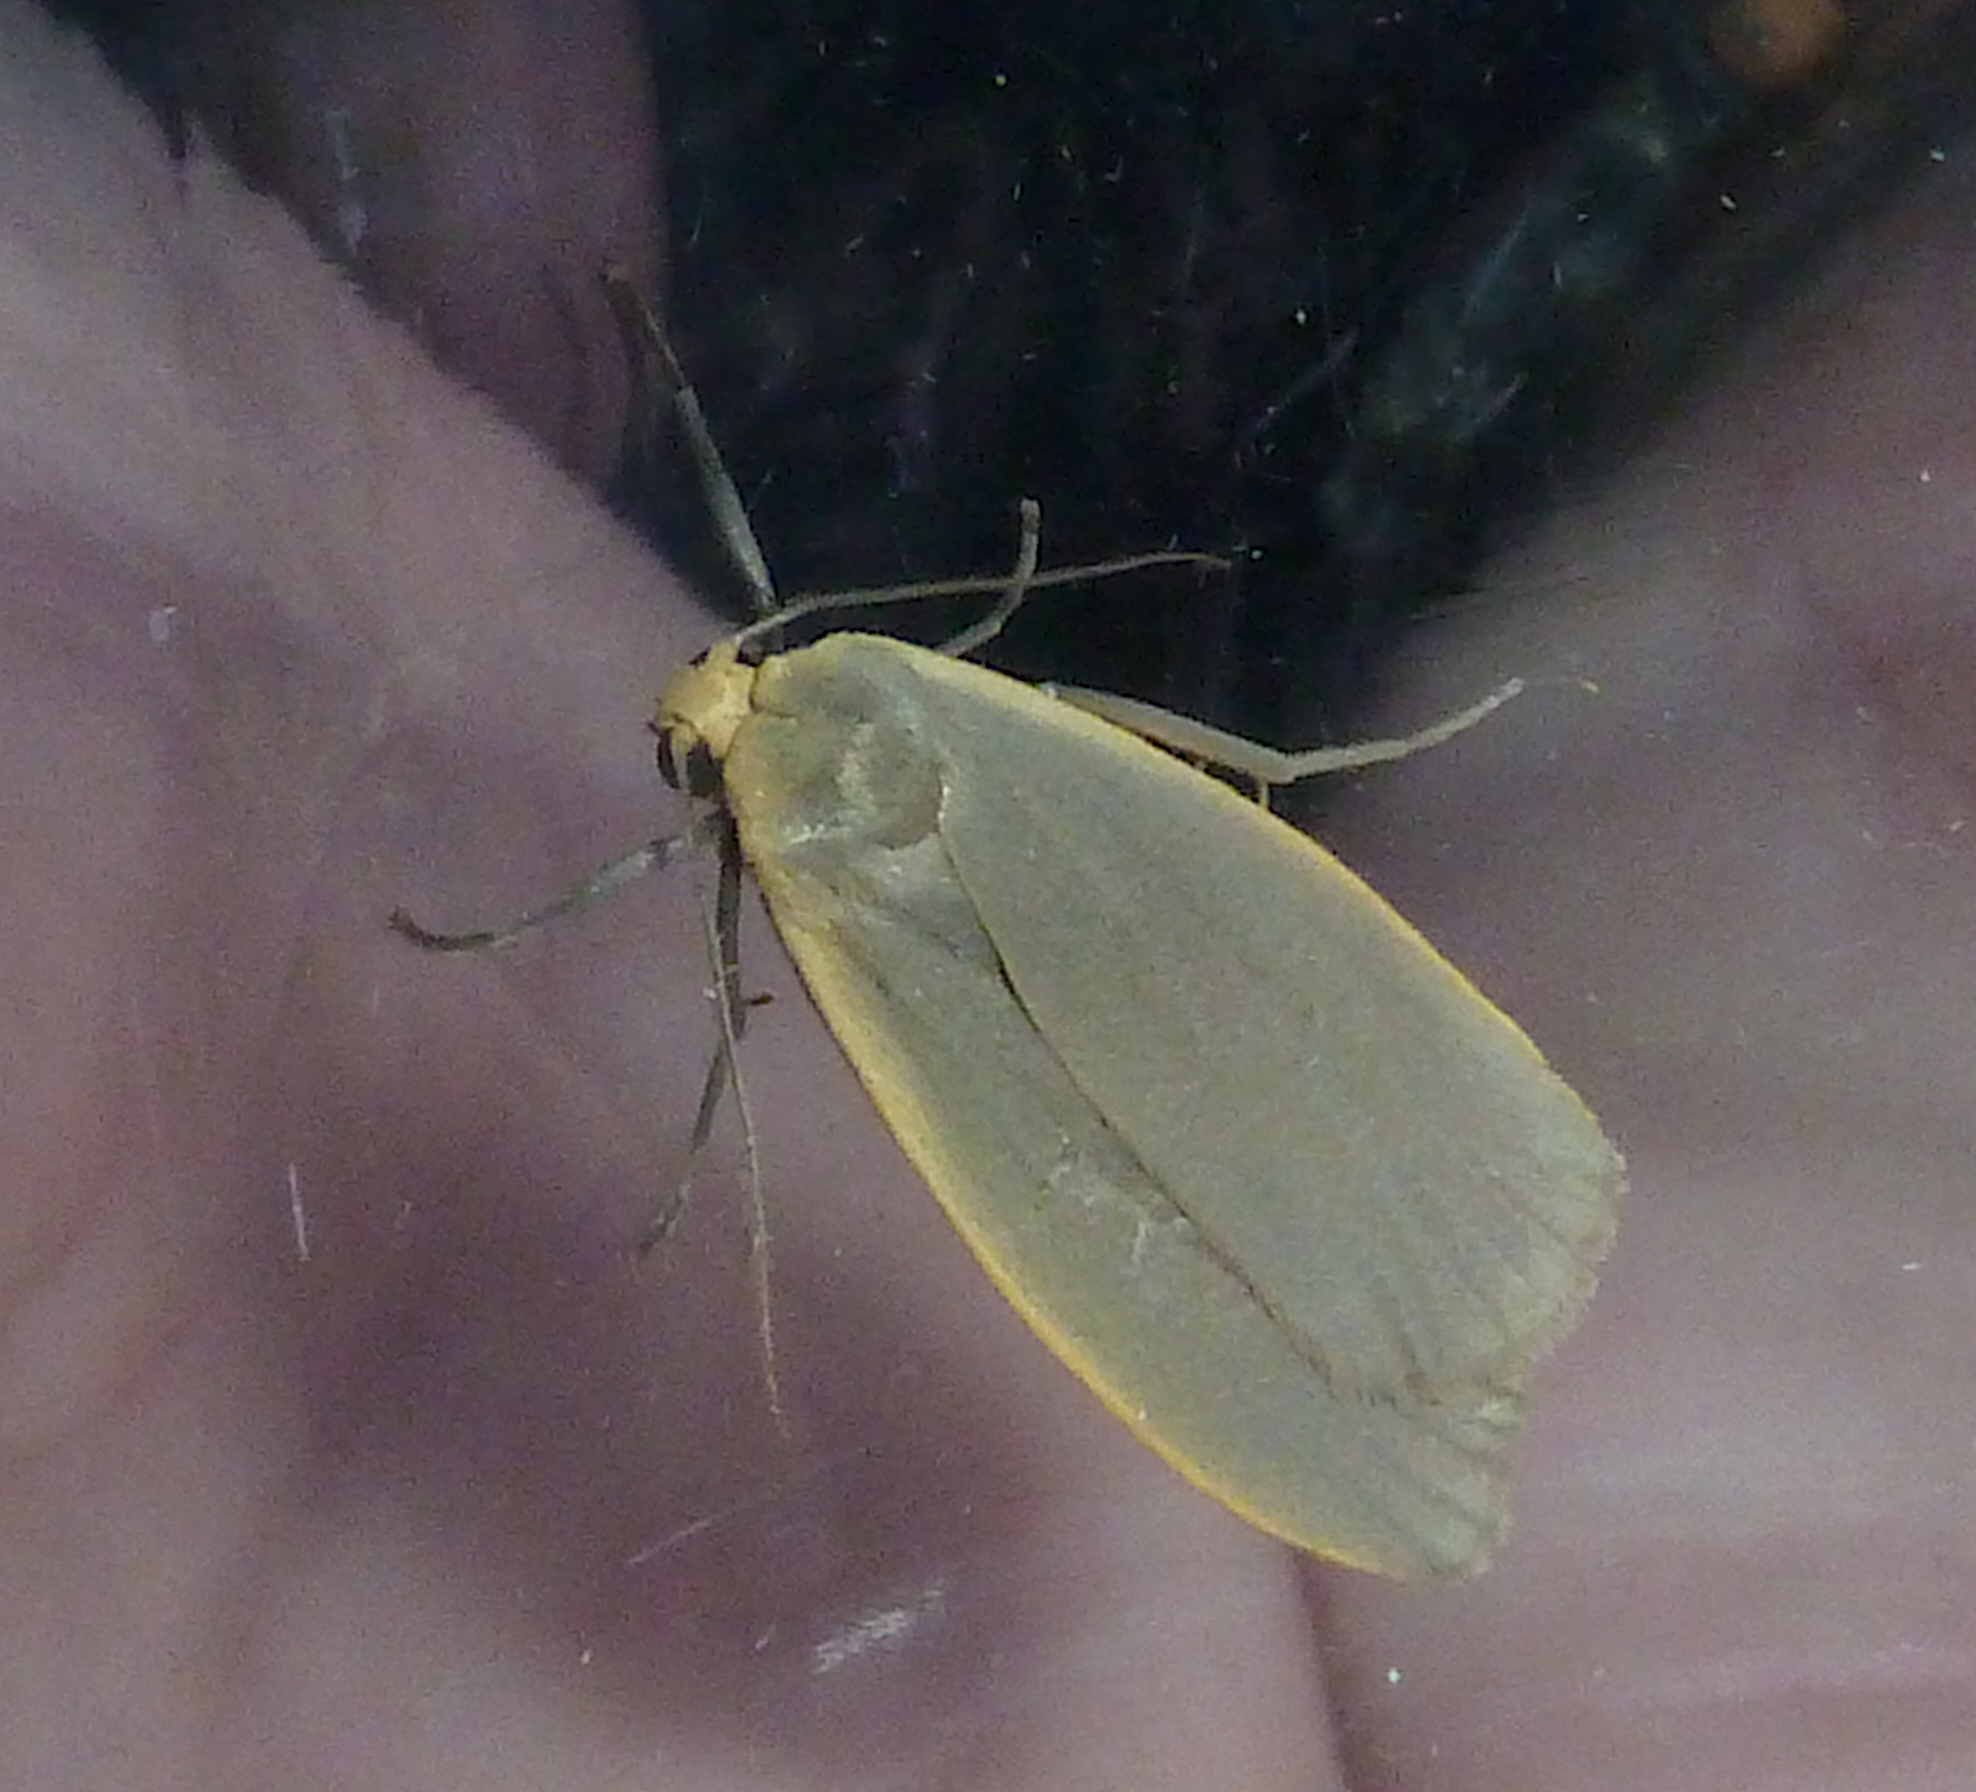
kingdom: Animalia
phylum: Arthropoda
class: Insecta
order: Lepidoptera
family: Erebidae
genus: Collita
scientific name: Collita griseola
